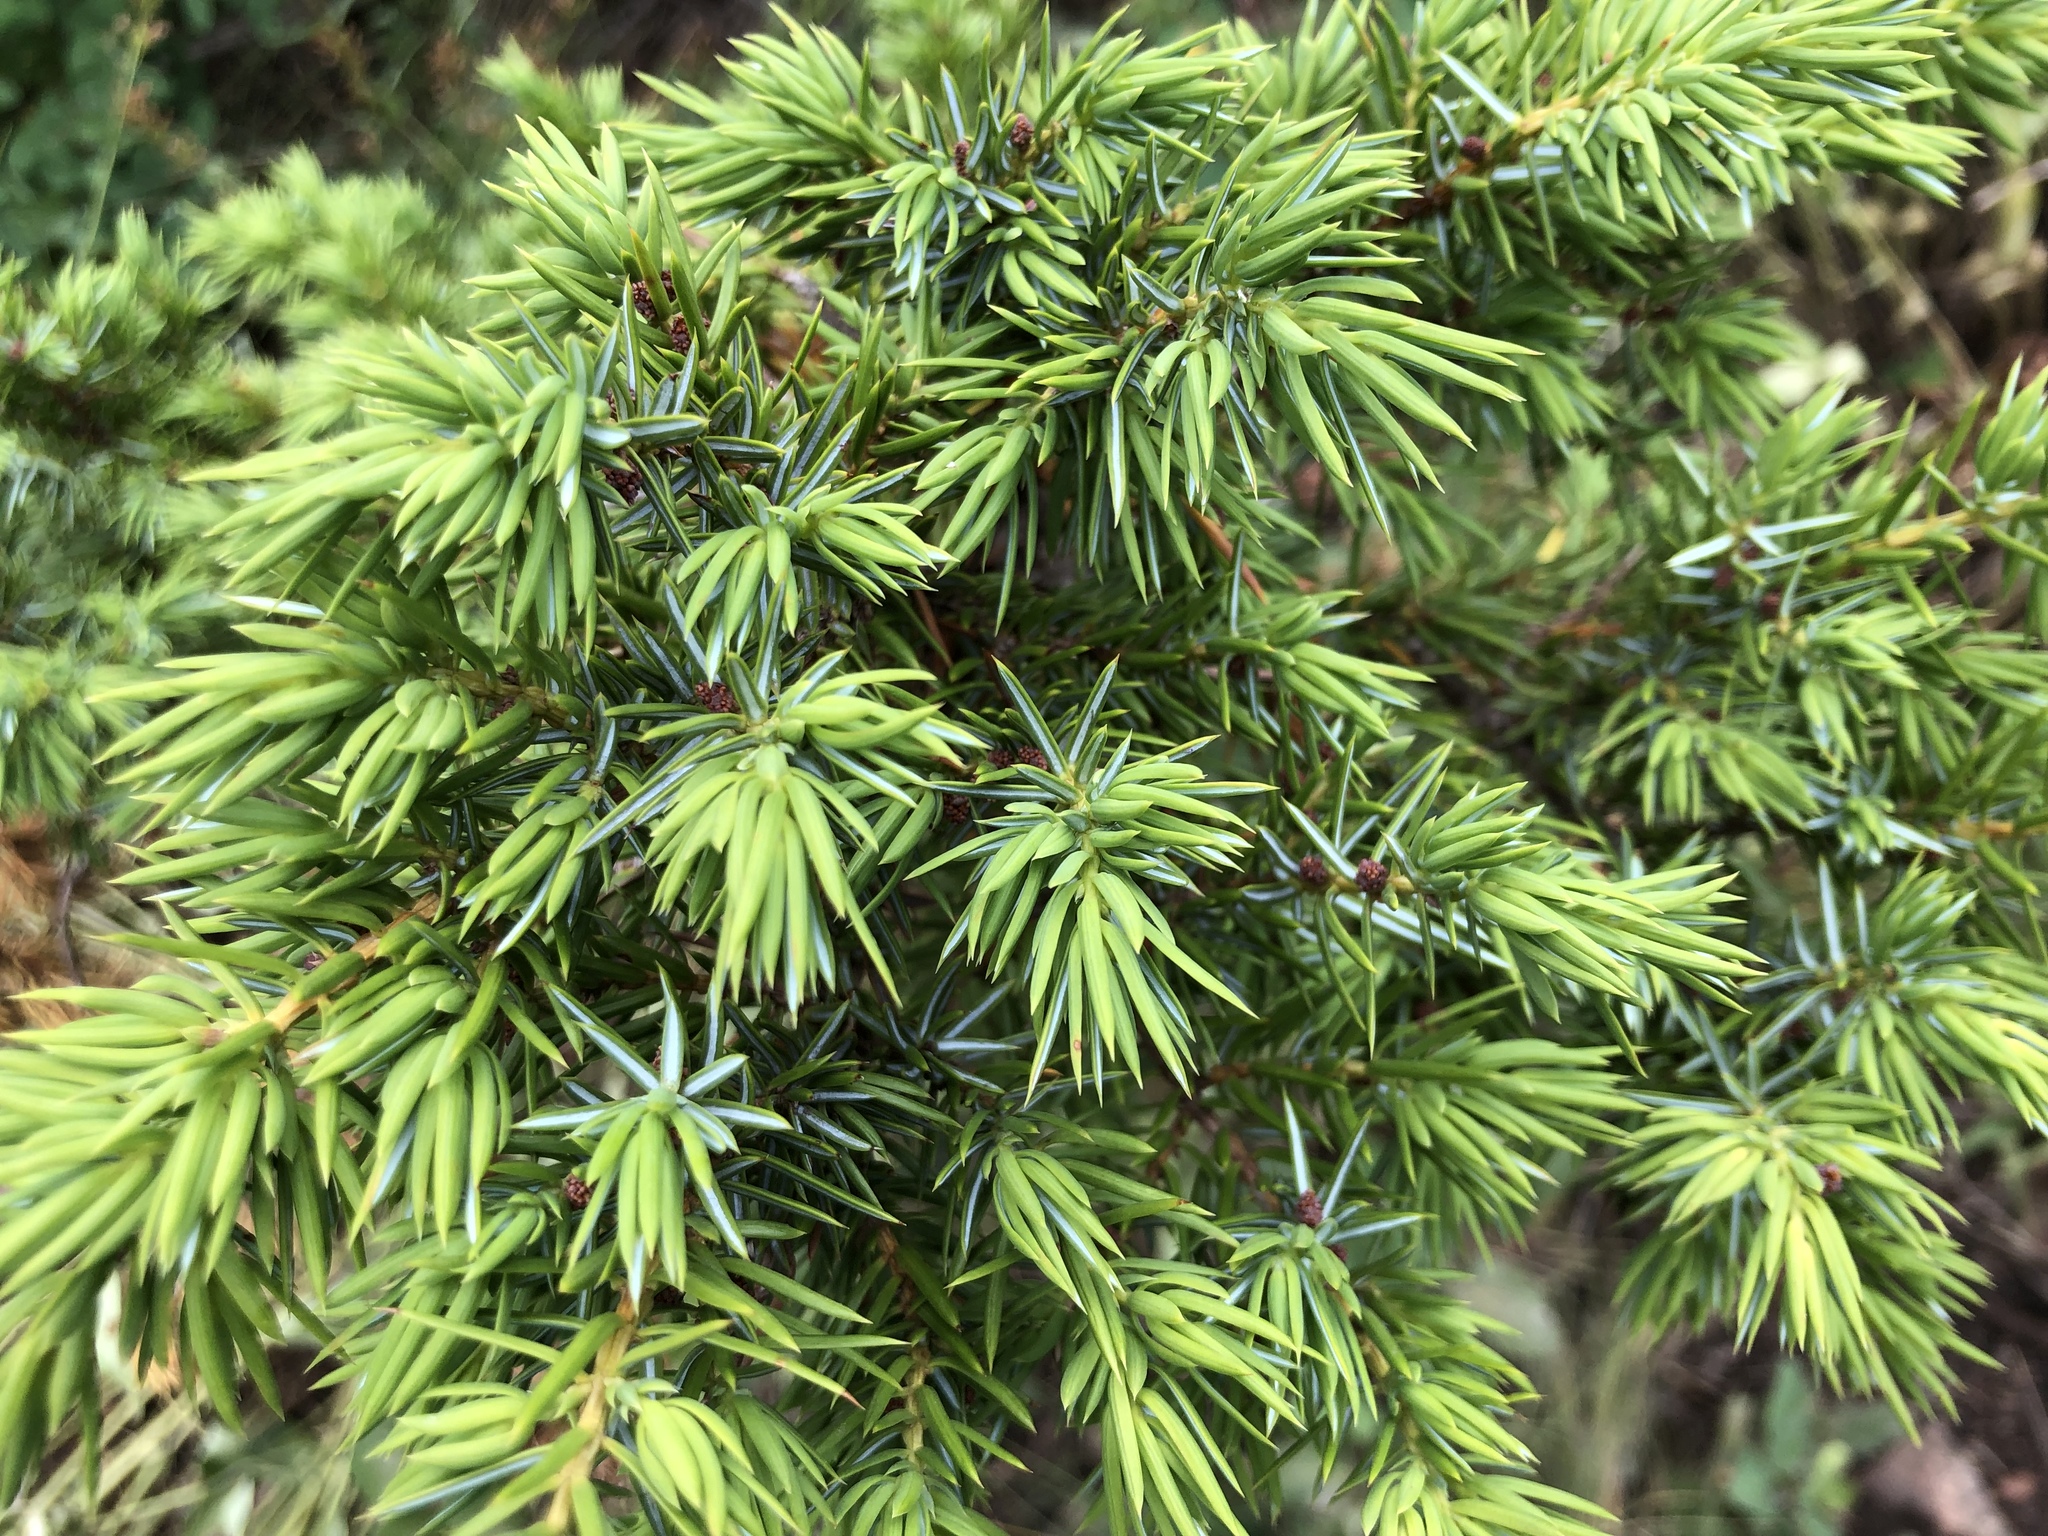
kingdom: Plantae
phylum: Tracheophyta
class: Pinopsida
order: Pinales
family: Cupressaceae
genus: Juniperus
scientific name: Juniperus communis
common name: Common juniper
